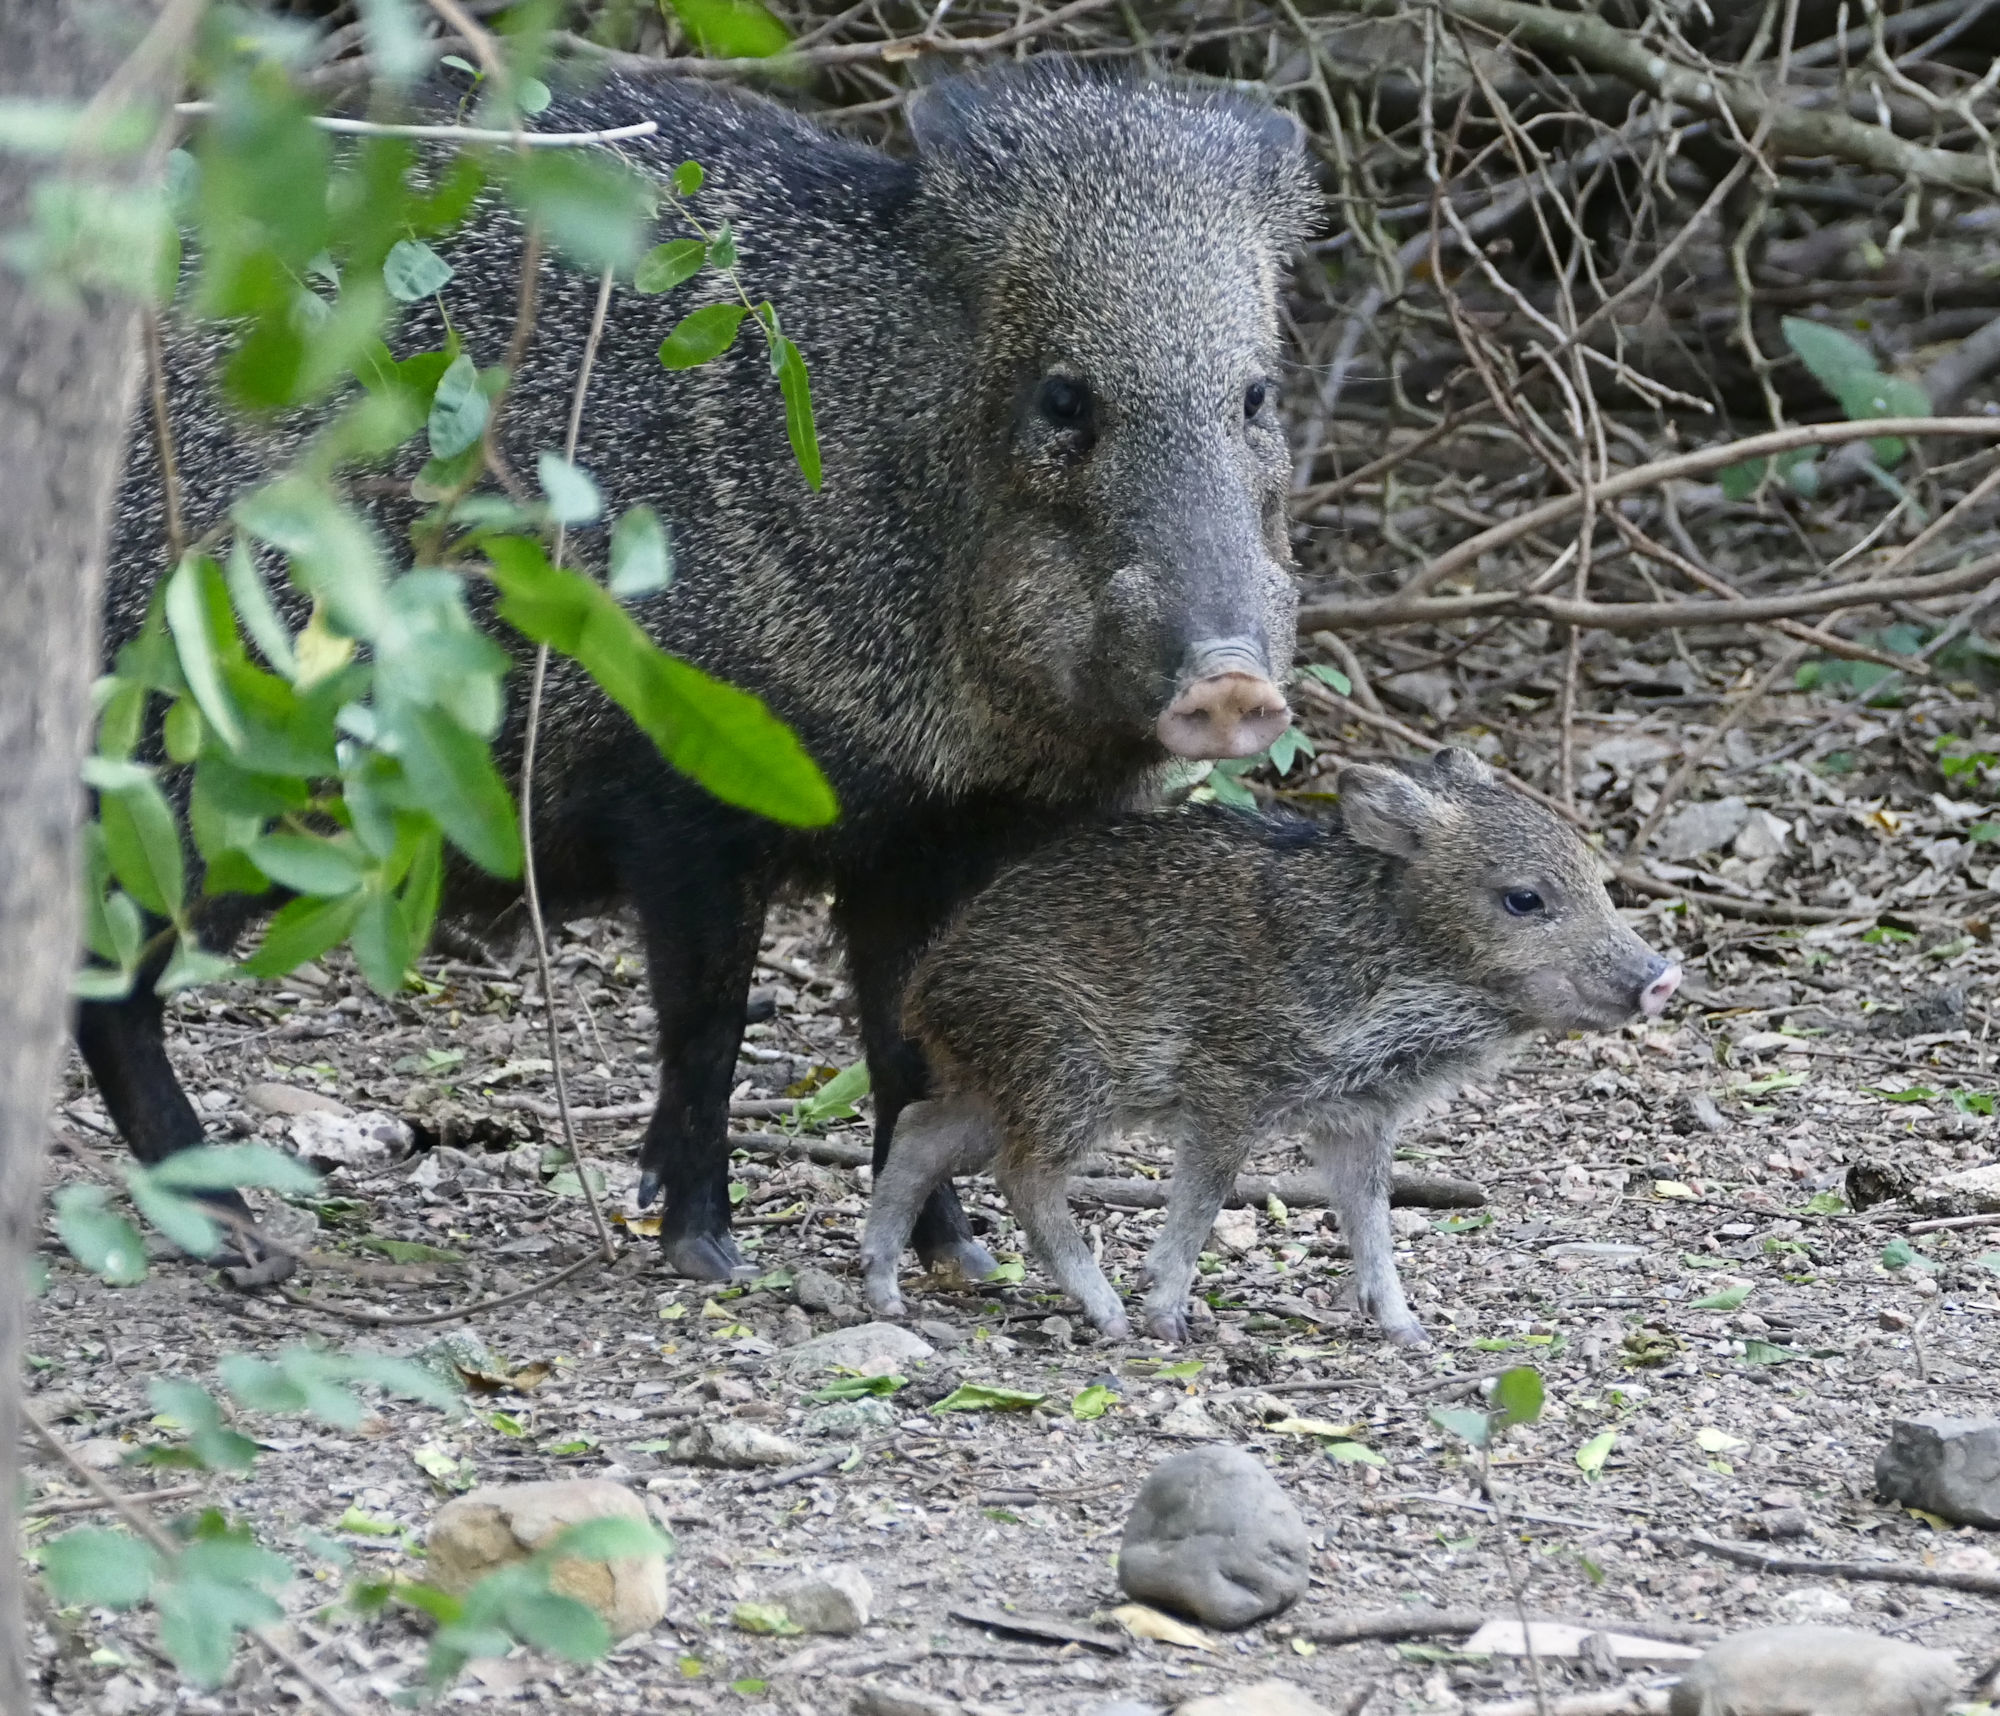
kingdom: Animalia
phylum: Chordata
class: Mammalia
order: Artiodactyla
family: Tayassuidae
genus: Pecari
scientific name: Pecari tajacu
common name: Collared peccary
